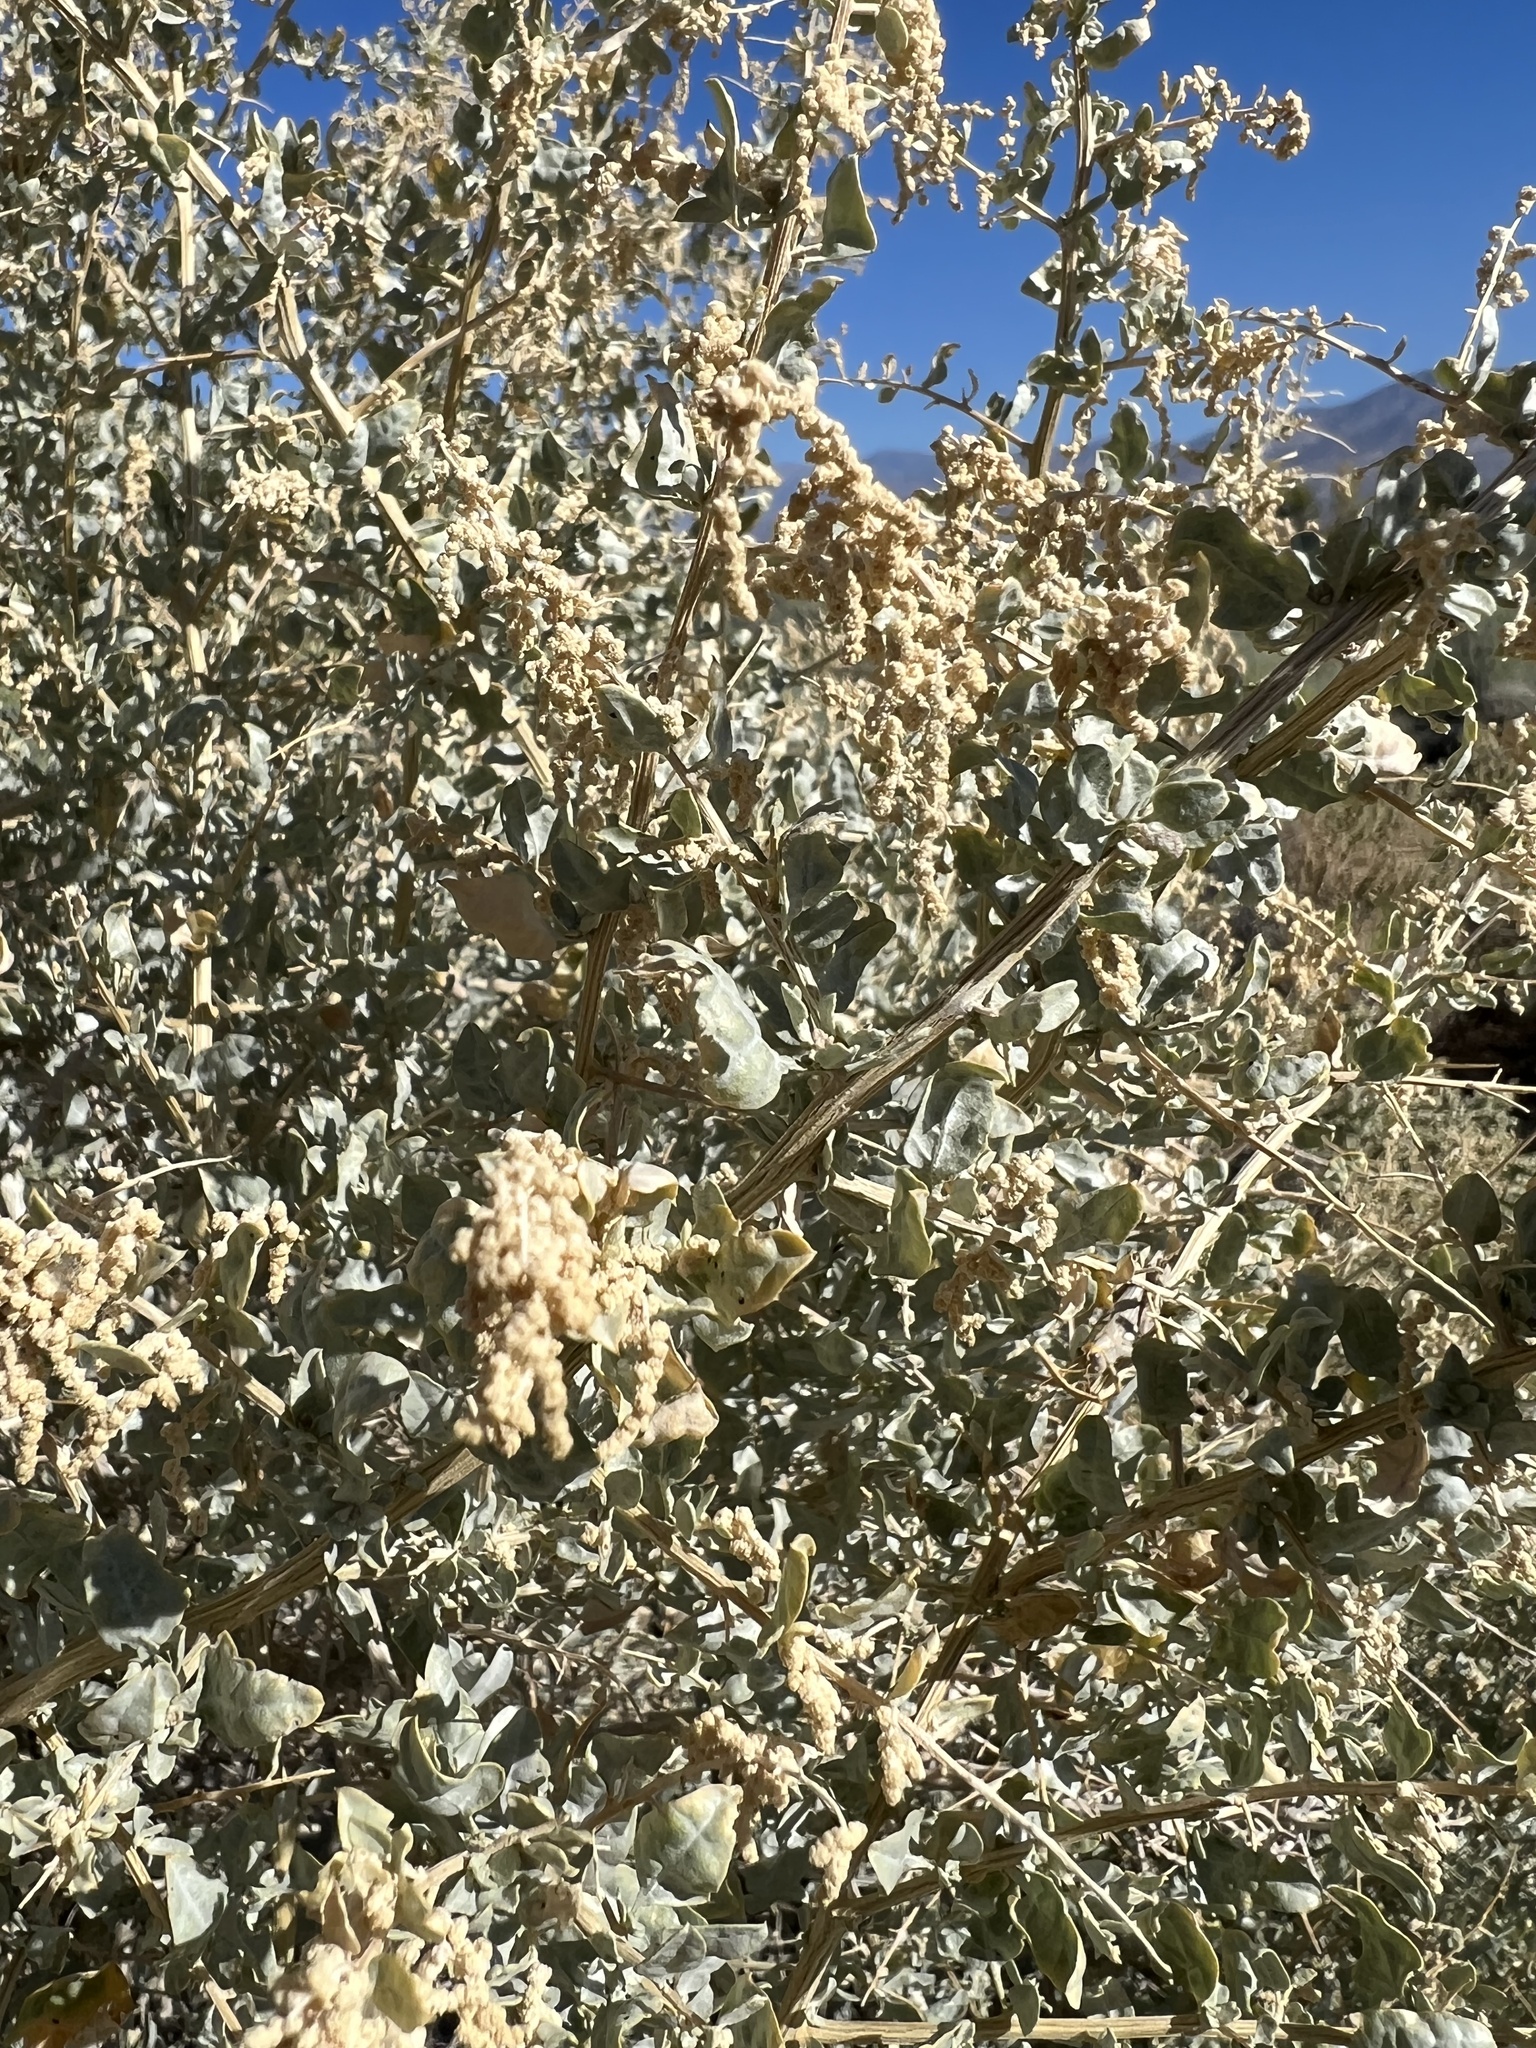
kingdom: Plantae
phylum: Tracheophyta
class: Magnoliopsida
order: Caryophyllales
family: Amaranthaceae
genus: Atriplex
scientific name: Atriplex torreyi
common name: Torrey's saltbush
